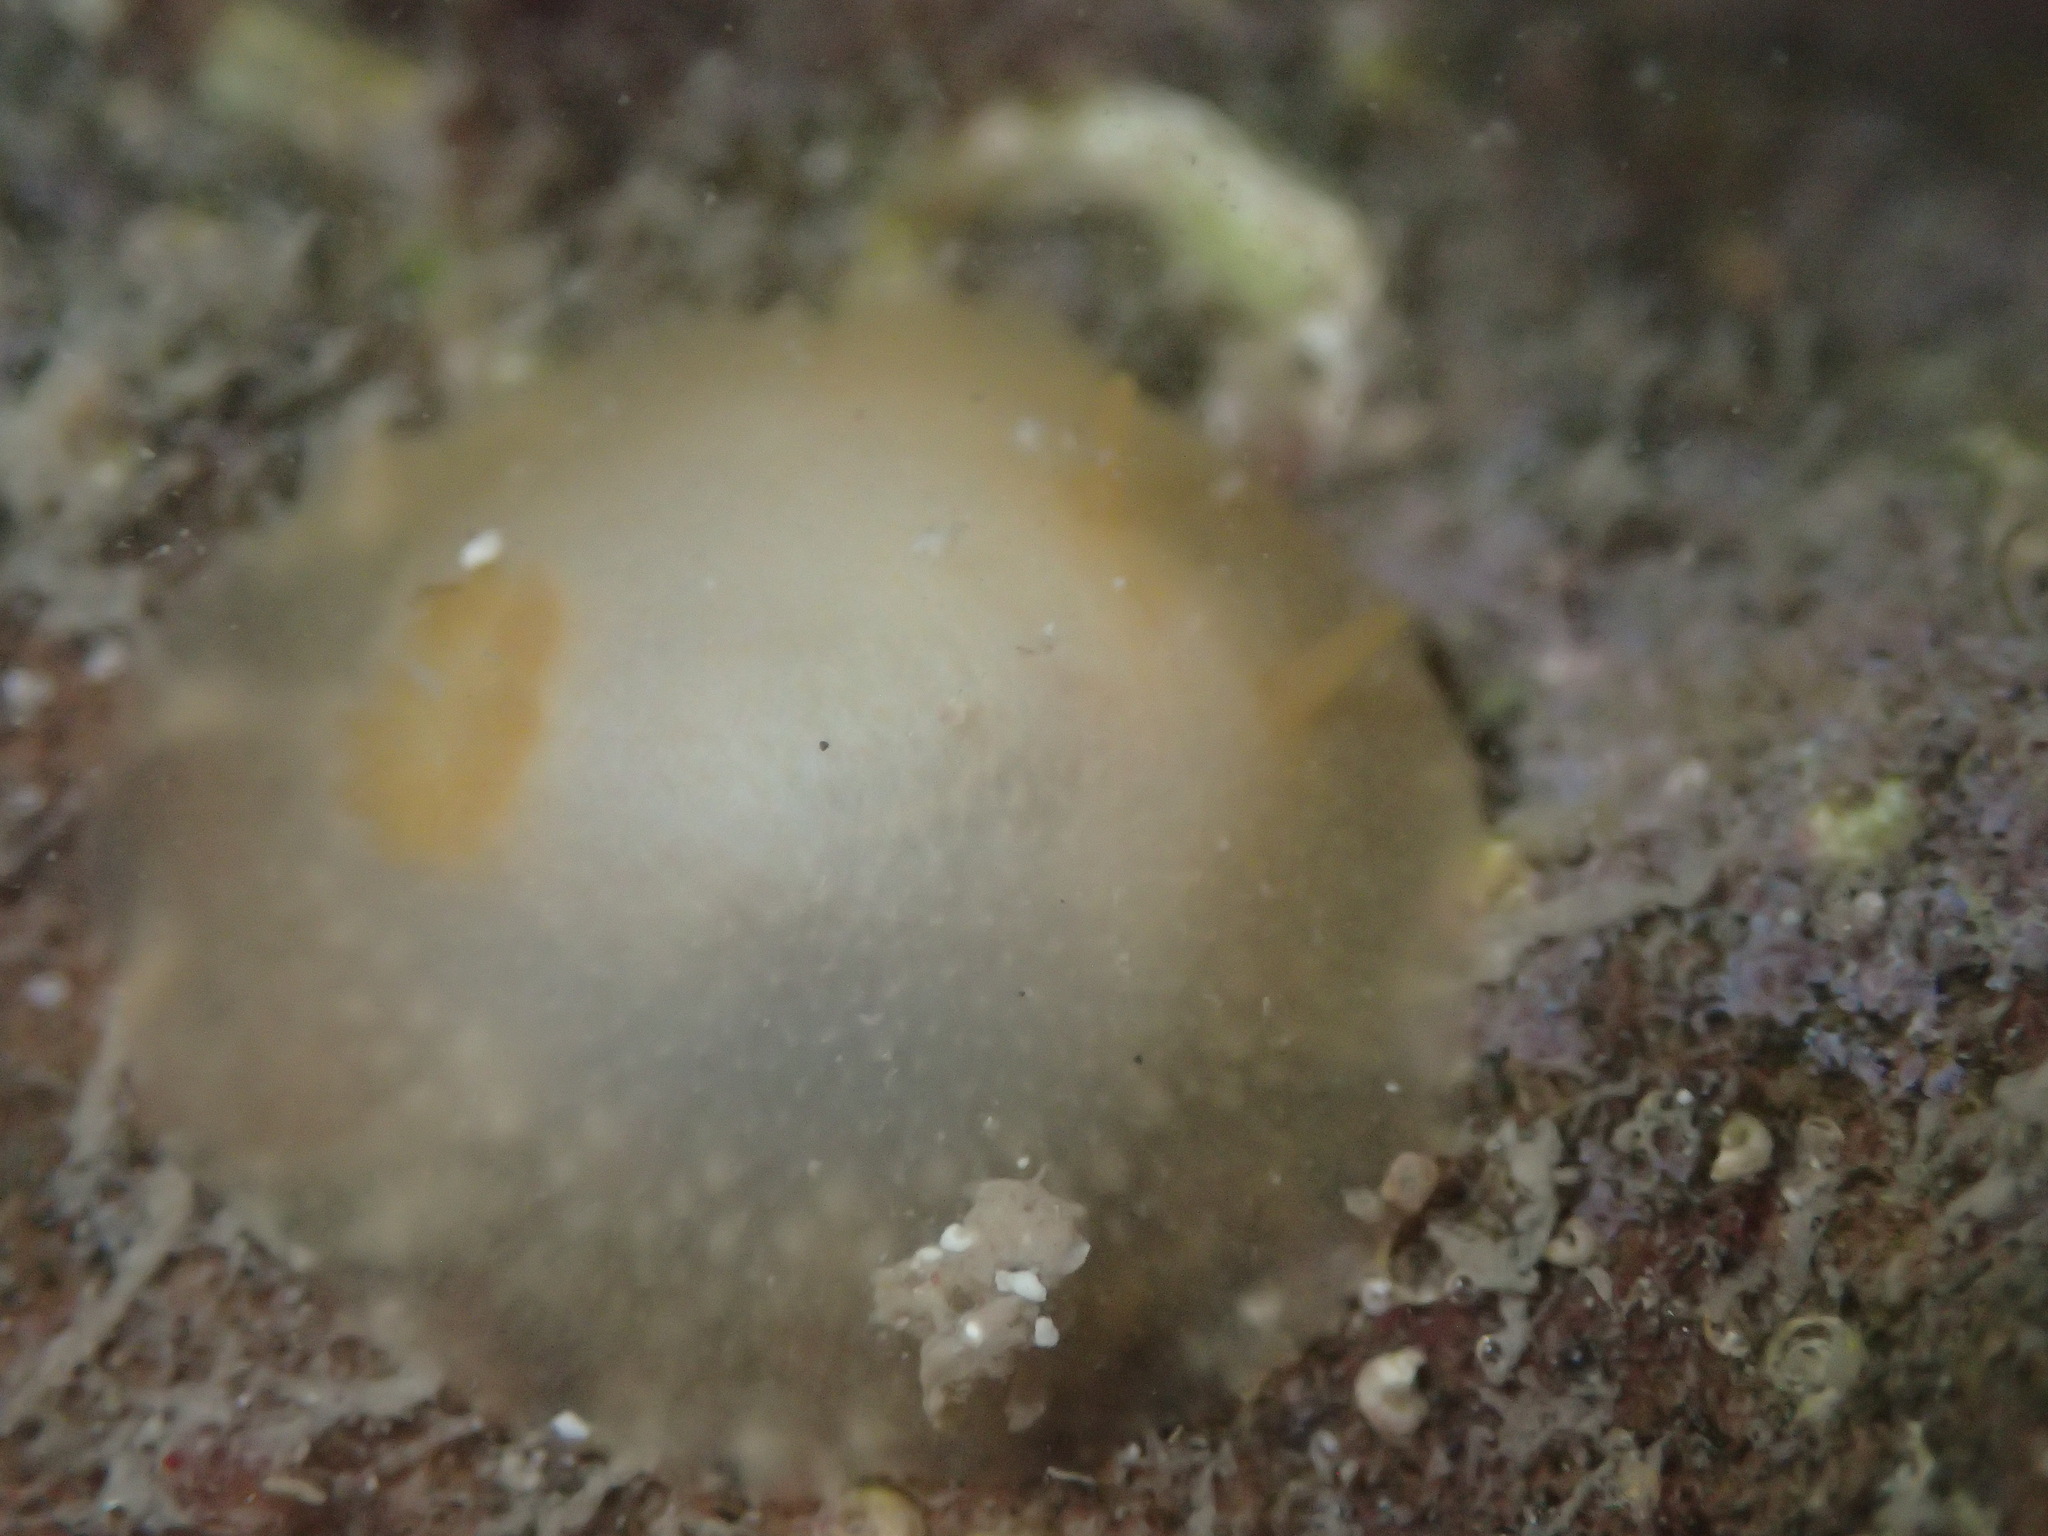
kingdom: Animalia
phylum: Mollusca
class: Gastropoda
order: Nudibranchia
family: Dorididae
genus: Conualevia
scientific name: Conualevia marcusi
